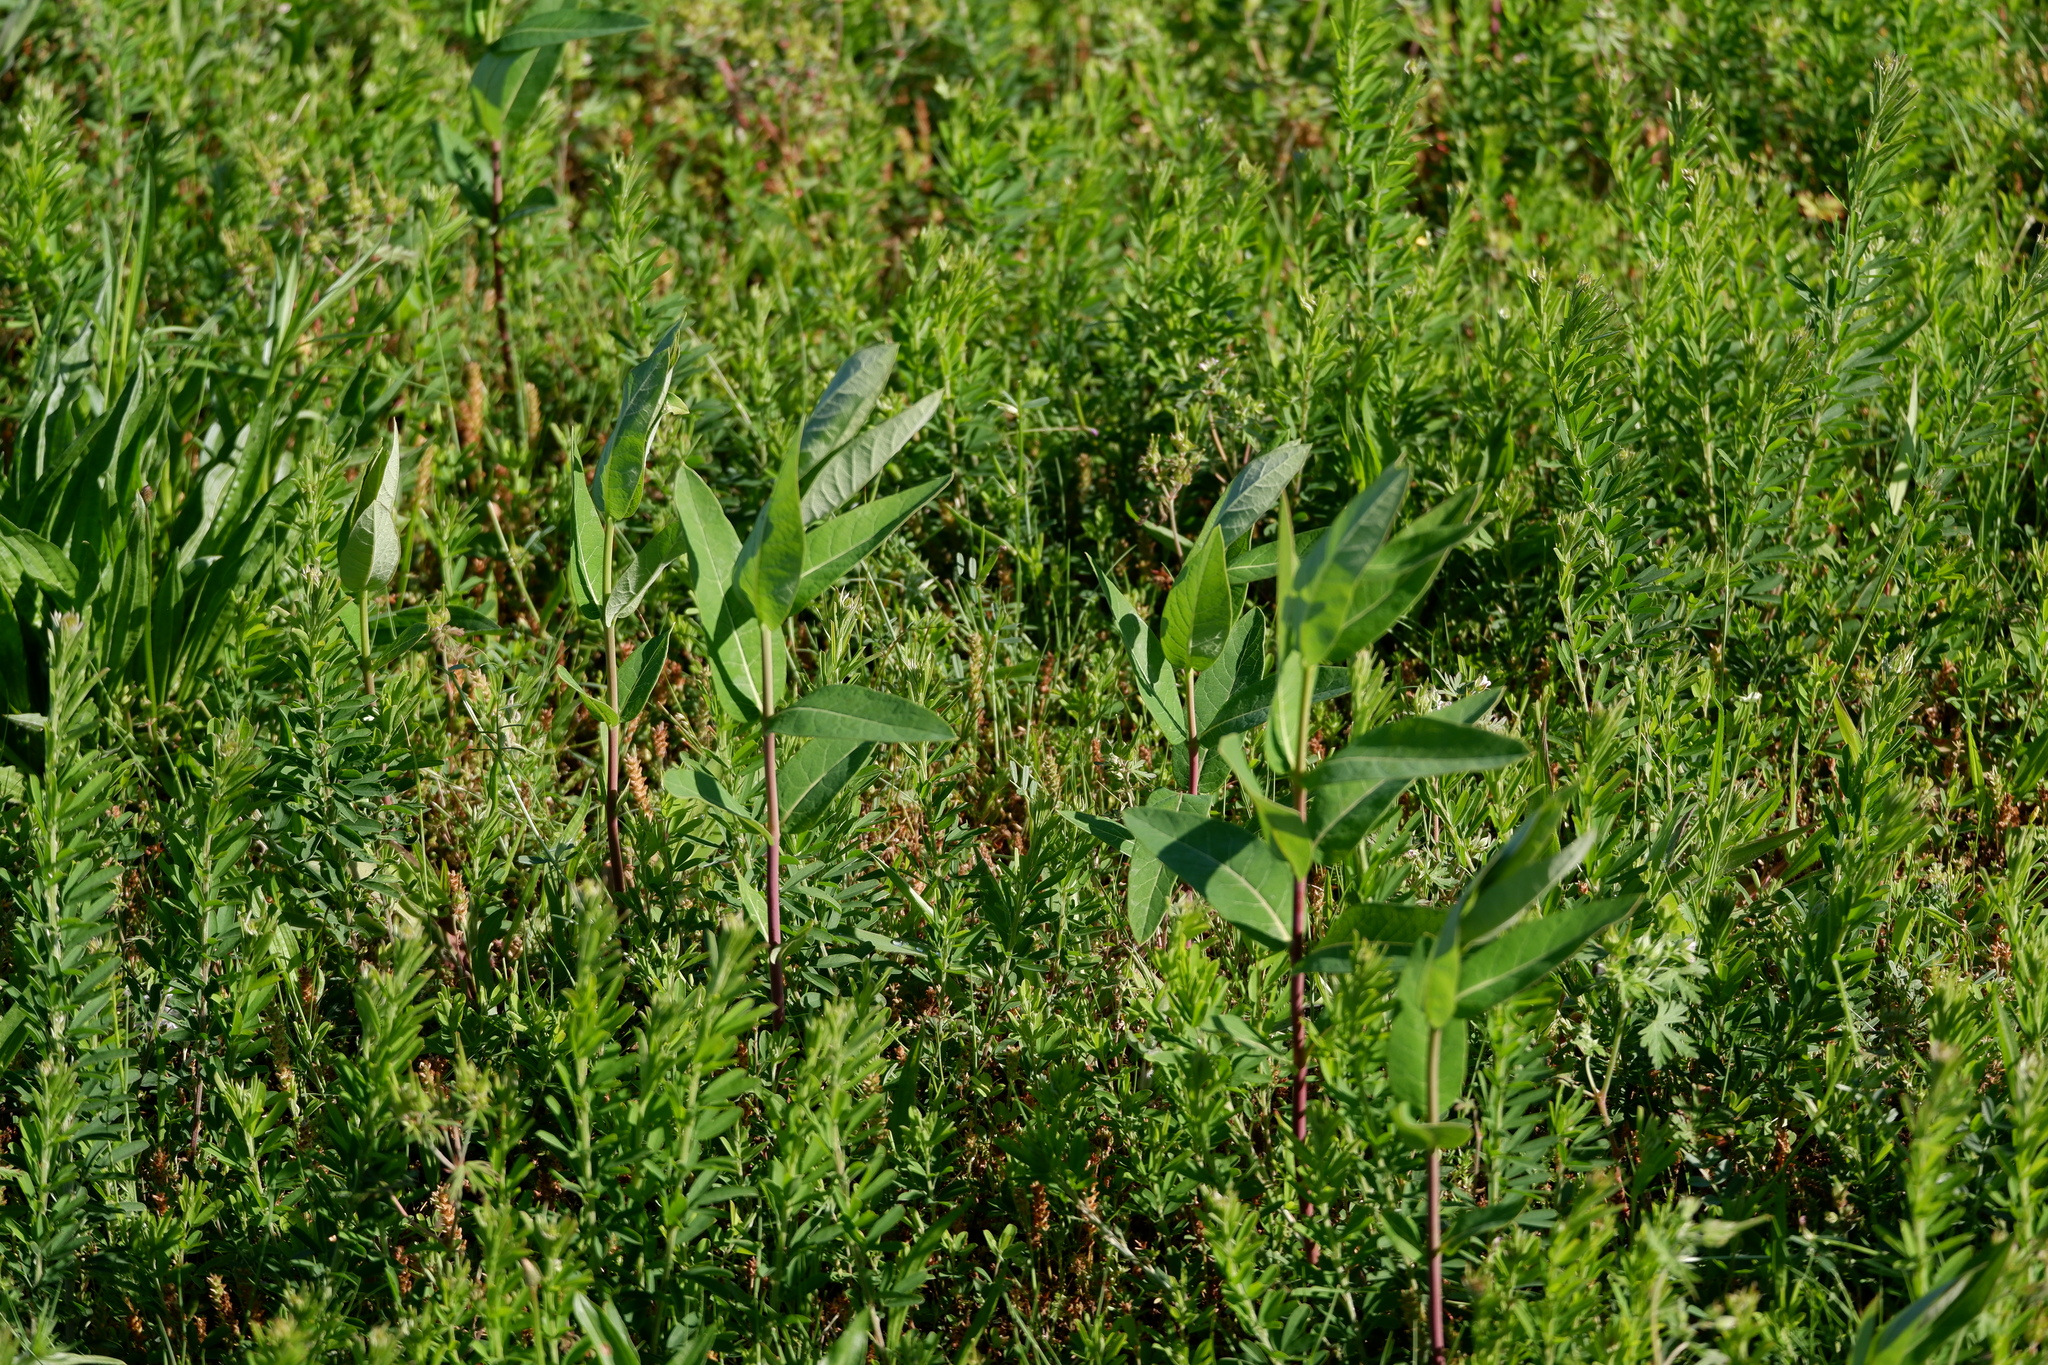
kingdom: Plantae
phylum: Tracheophyta
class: Magnoliopsida
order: Gentianales
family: Apocynaceae
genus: Apocynum
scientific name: Apocynum cannabinum
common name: Hemp dogbane
